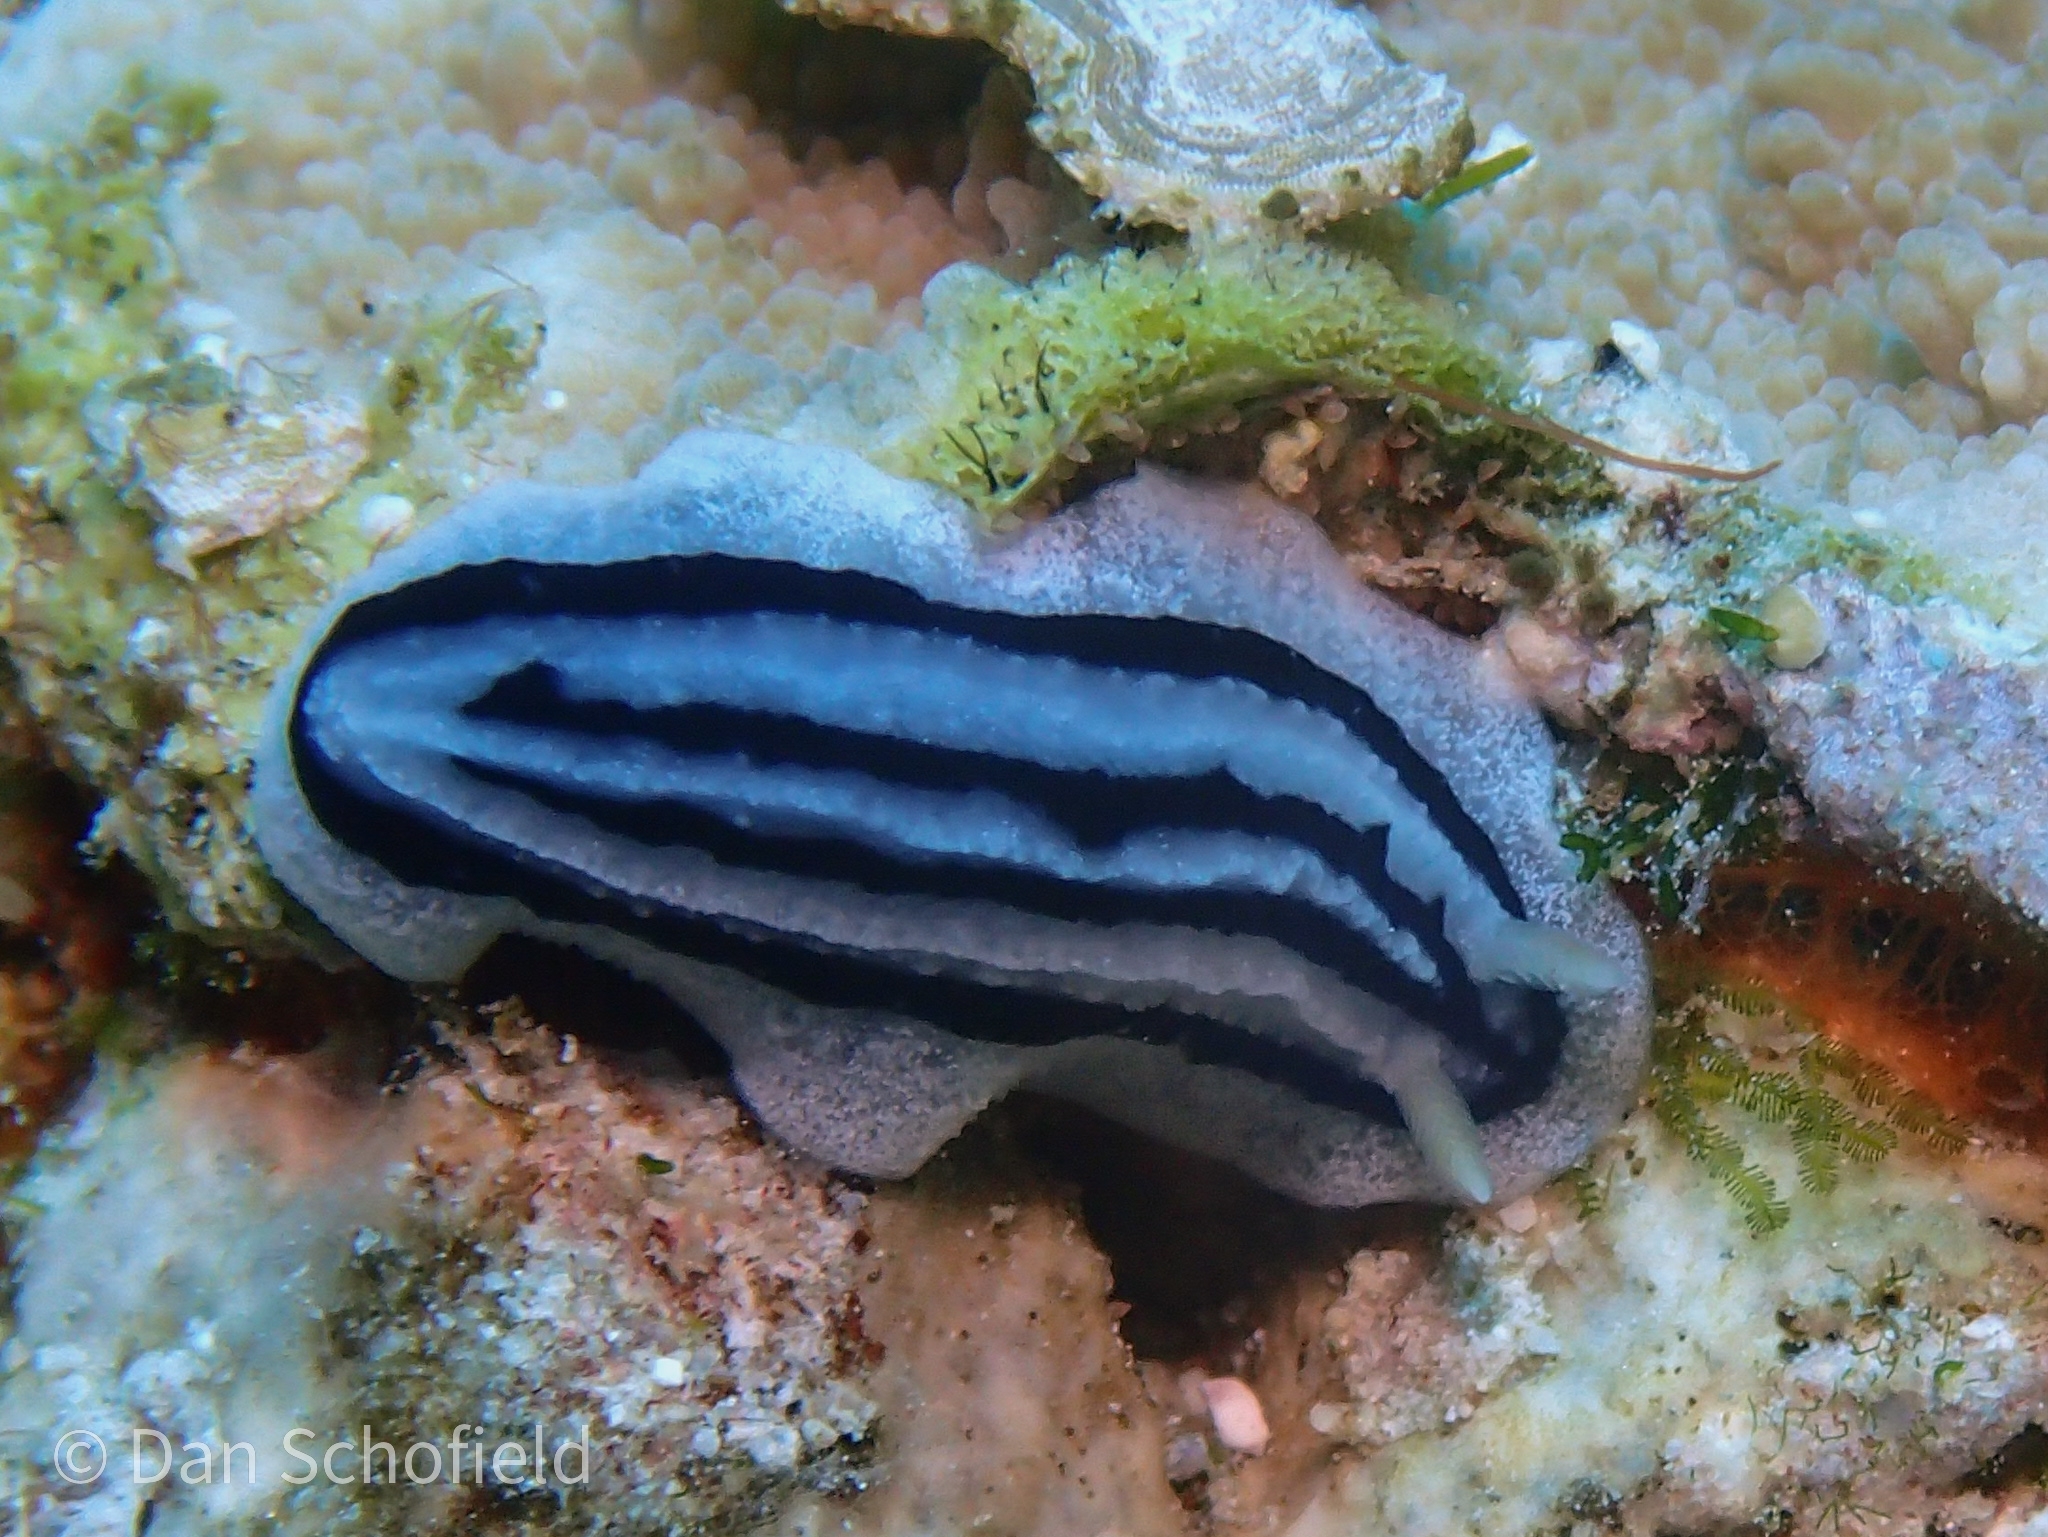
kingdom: Animalia
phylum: Mollusca
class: Gastropoda
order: Nudibranchia
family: Phyllidiidae
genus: Phyllidiopsis
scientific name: Phyllidiopsis xishaensis
